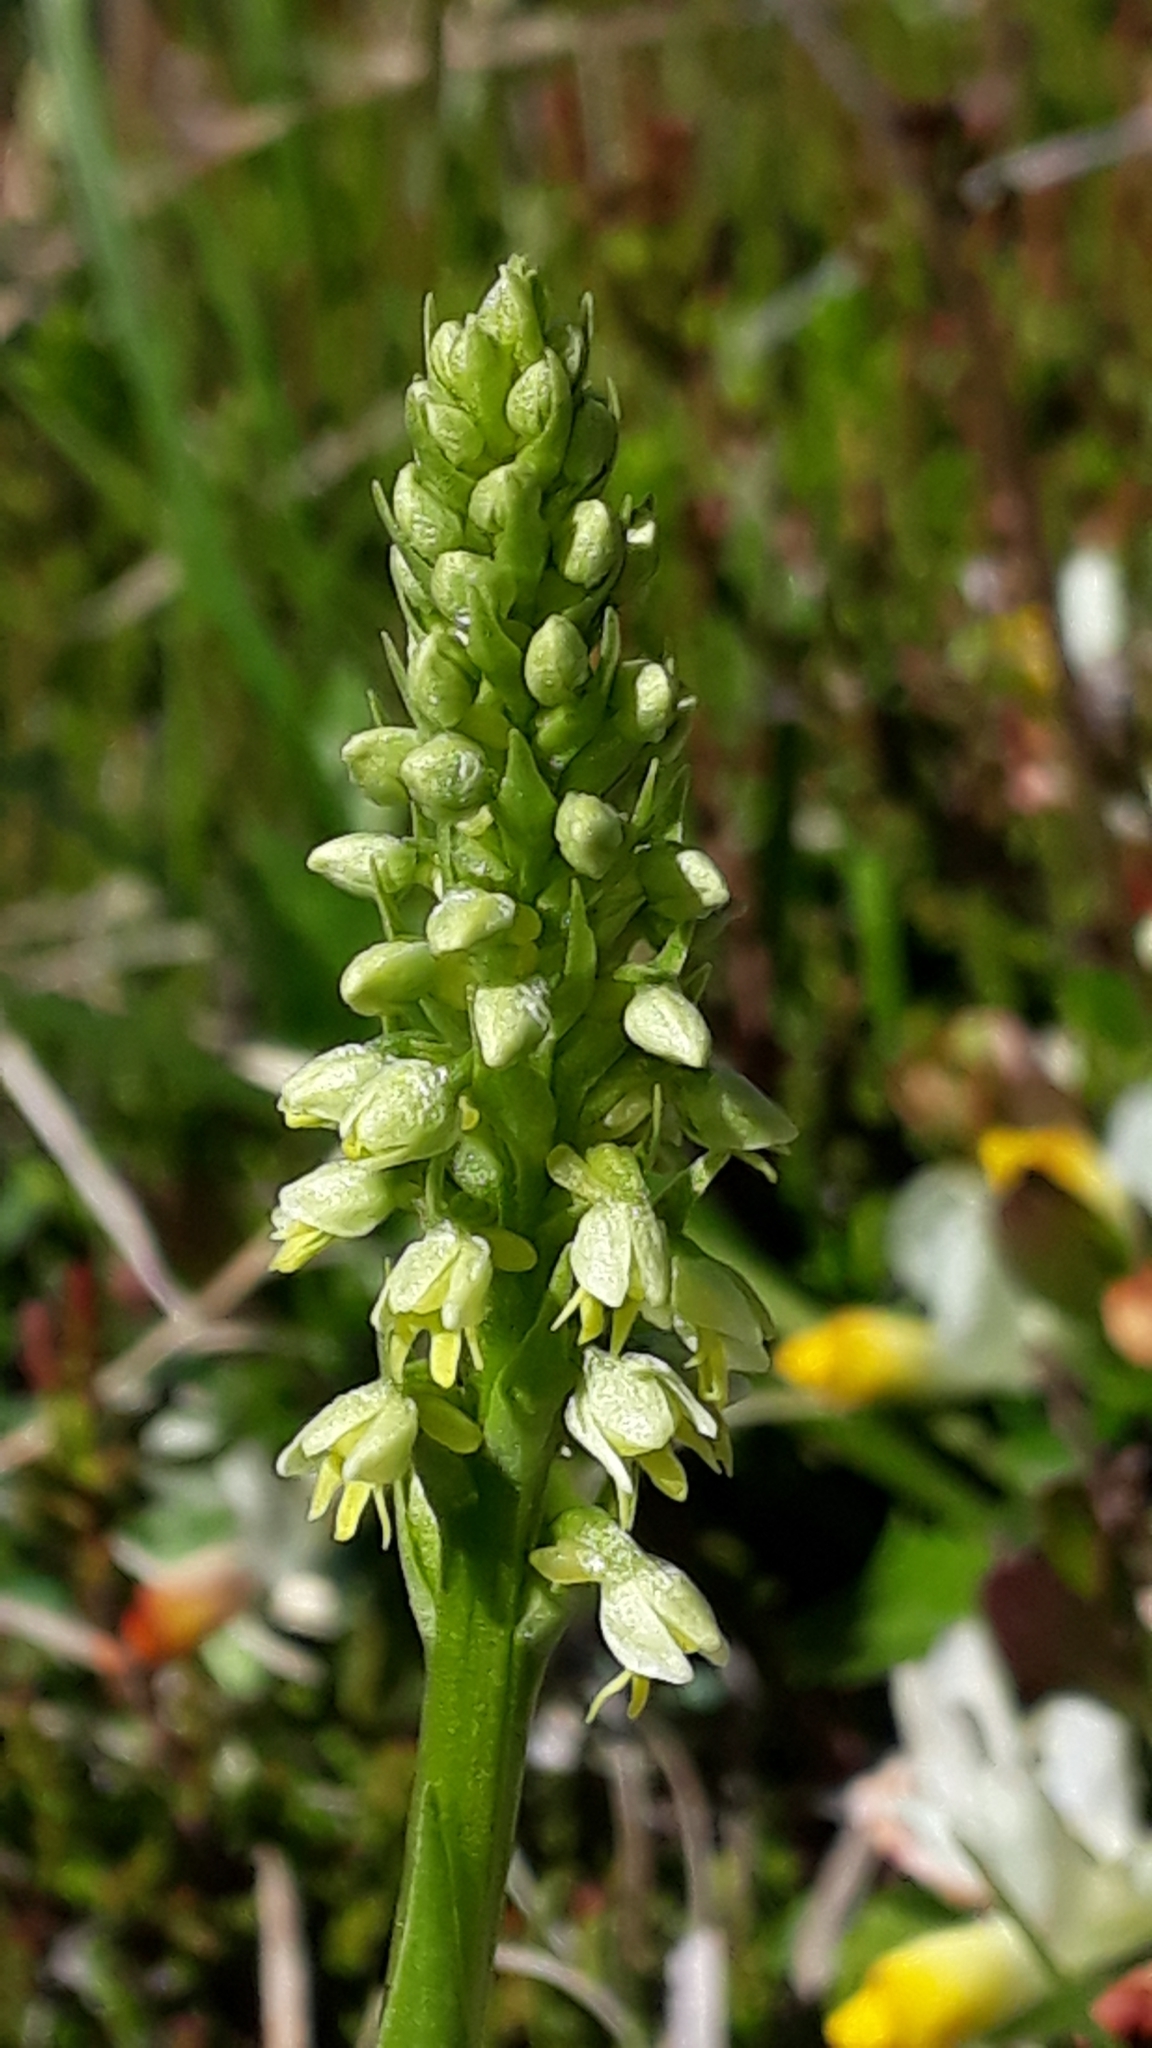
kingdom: Plantae
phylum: Tracheophyta
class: Liliopsida
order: Asparagales
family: Orchidaceae
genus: Pseudorchis
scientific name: Pseudorchis albida
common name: Small-white orchid
